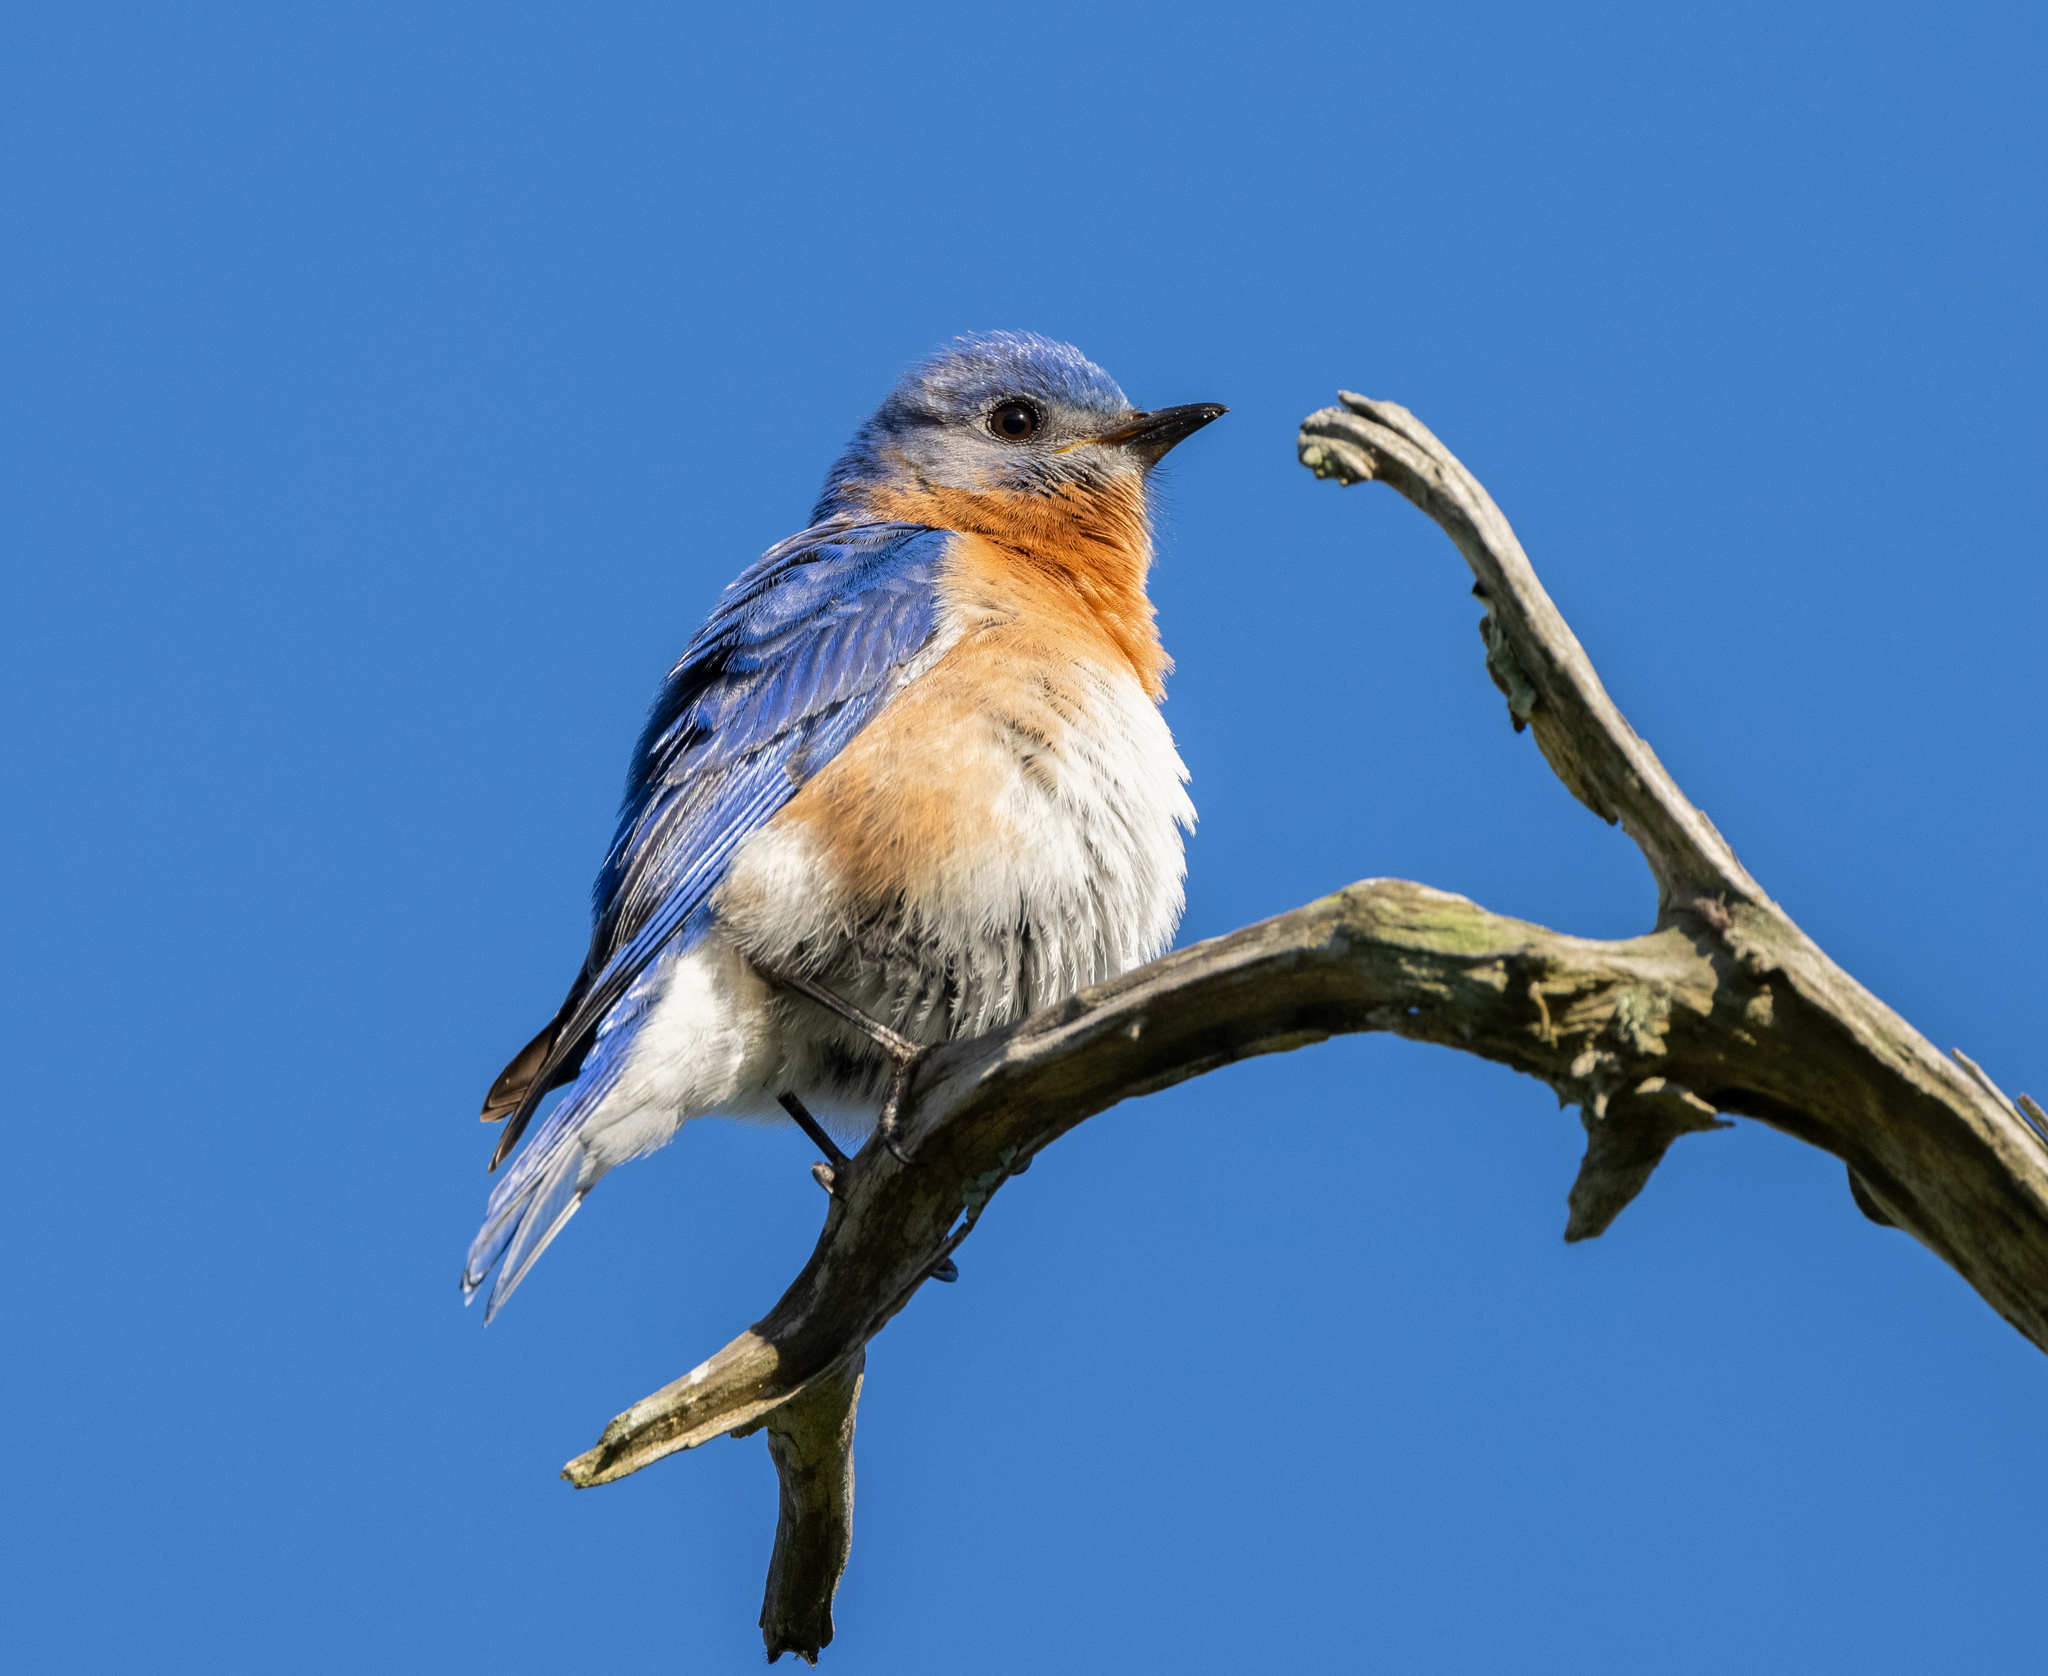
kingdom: Animalia
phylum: Chordata
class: Aves
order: Passeriformes
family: Turdidae
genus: Sialia
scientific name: Sialia sialis
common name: Eastern bluebird
